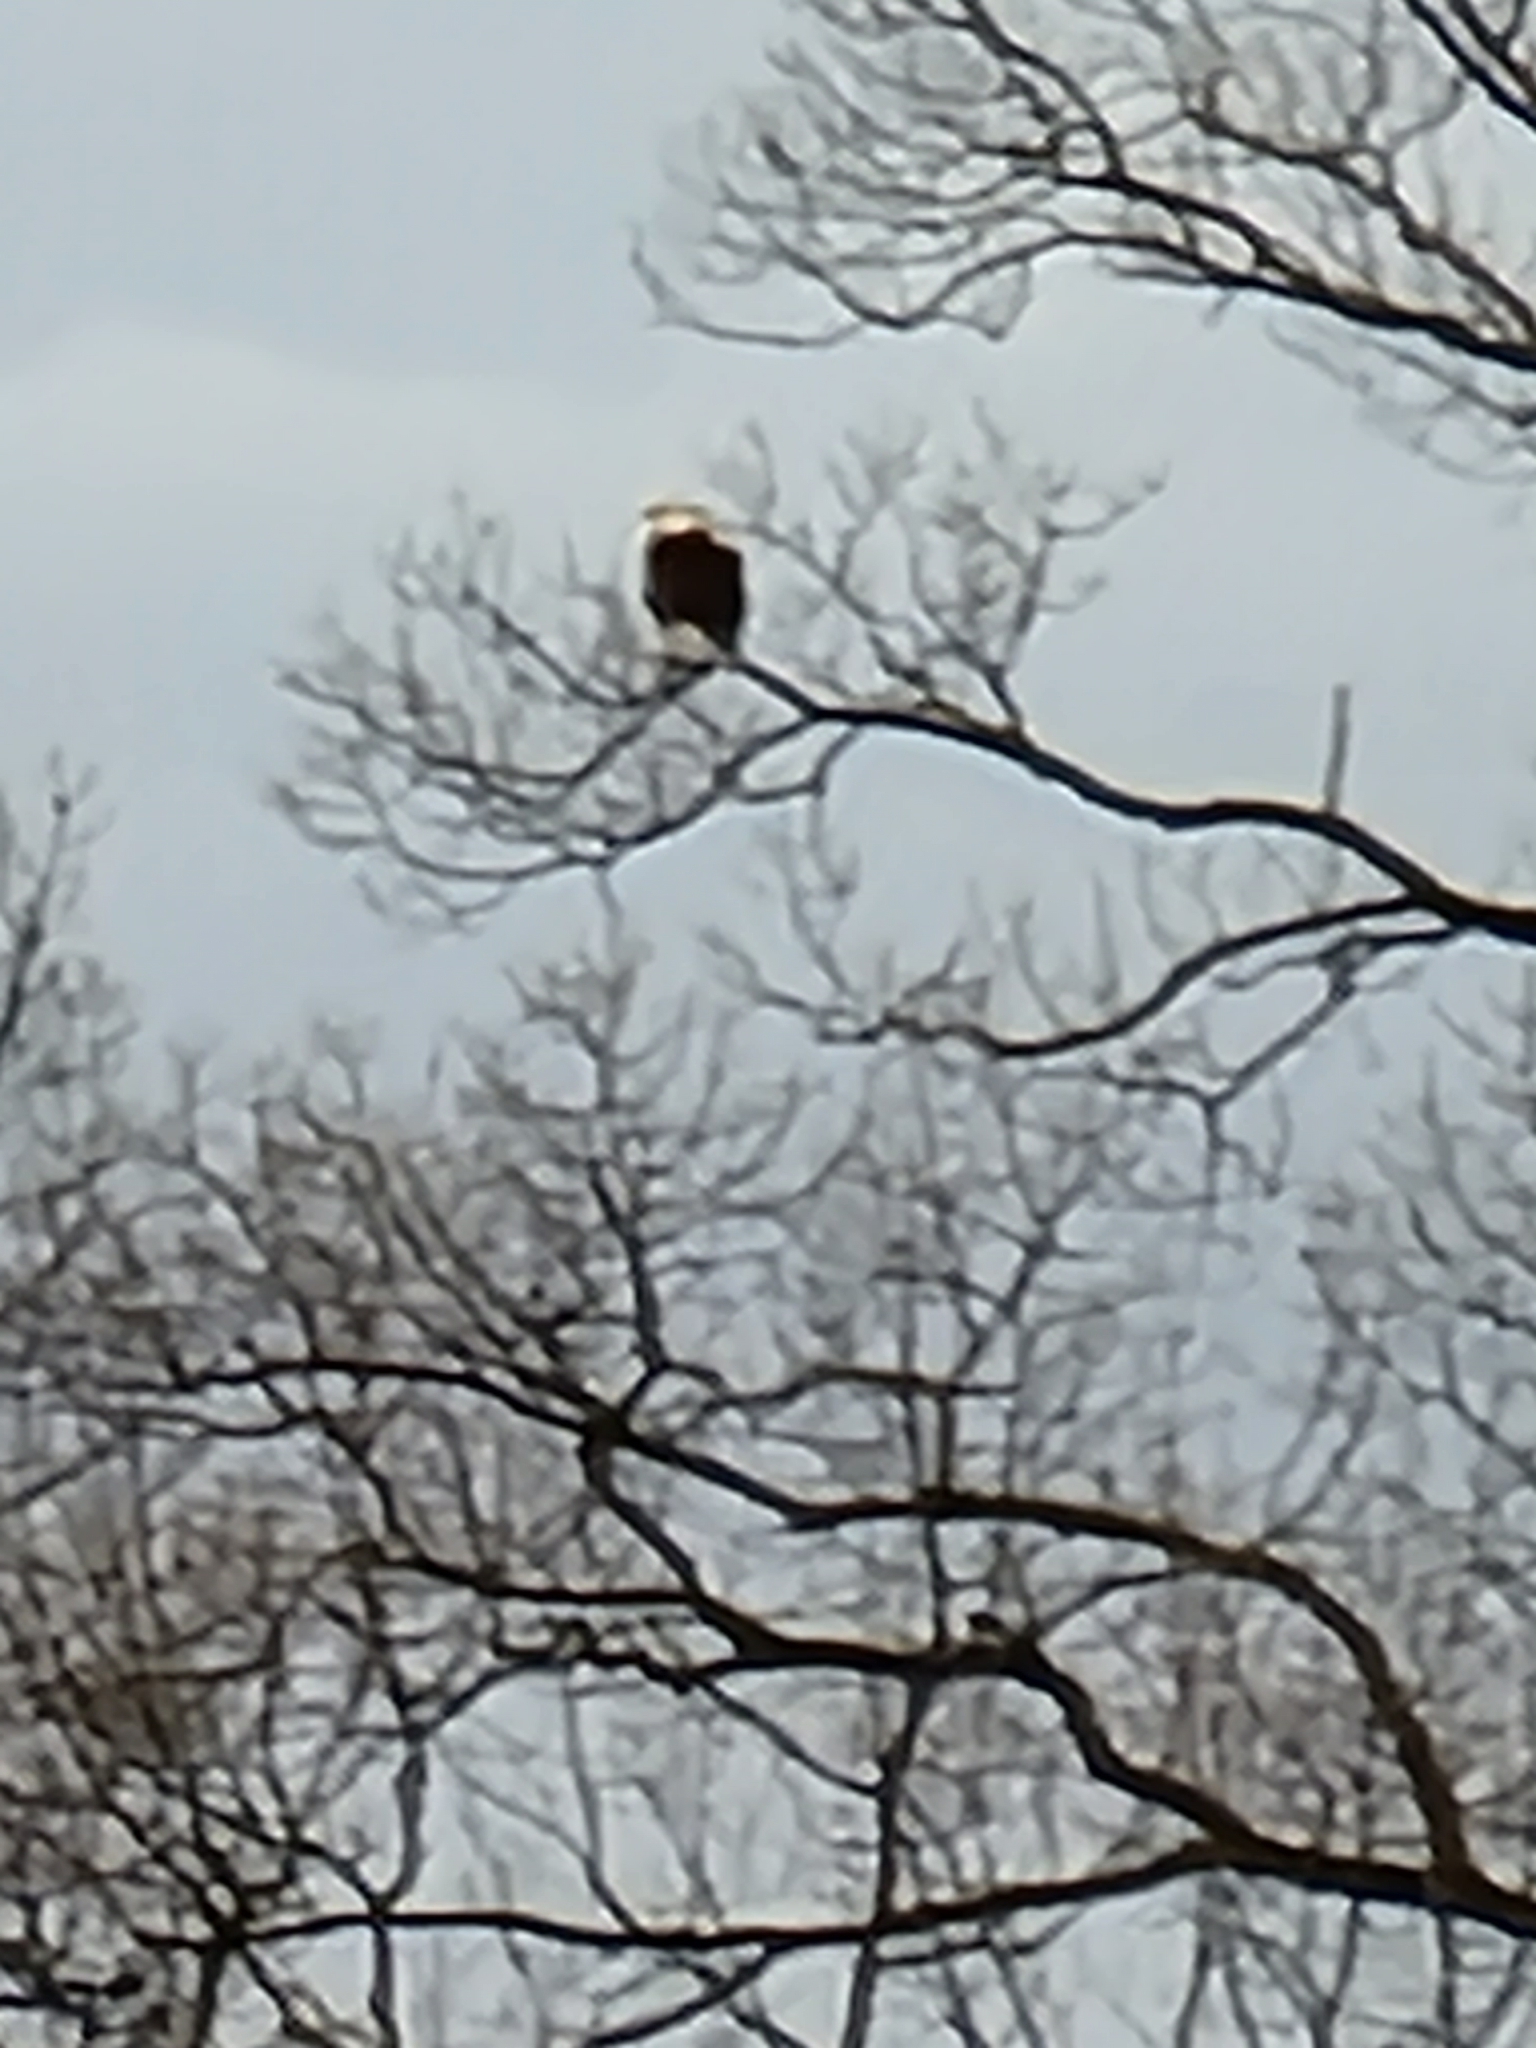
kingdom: Animalia
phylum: Chordata
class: Aves
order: Accipitriformes
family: Accipitridae
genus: Haliaeetus
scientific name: Haliaeetus leucocephalus
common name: Bald eagle
